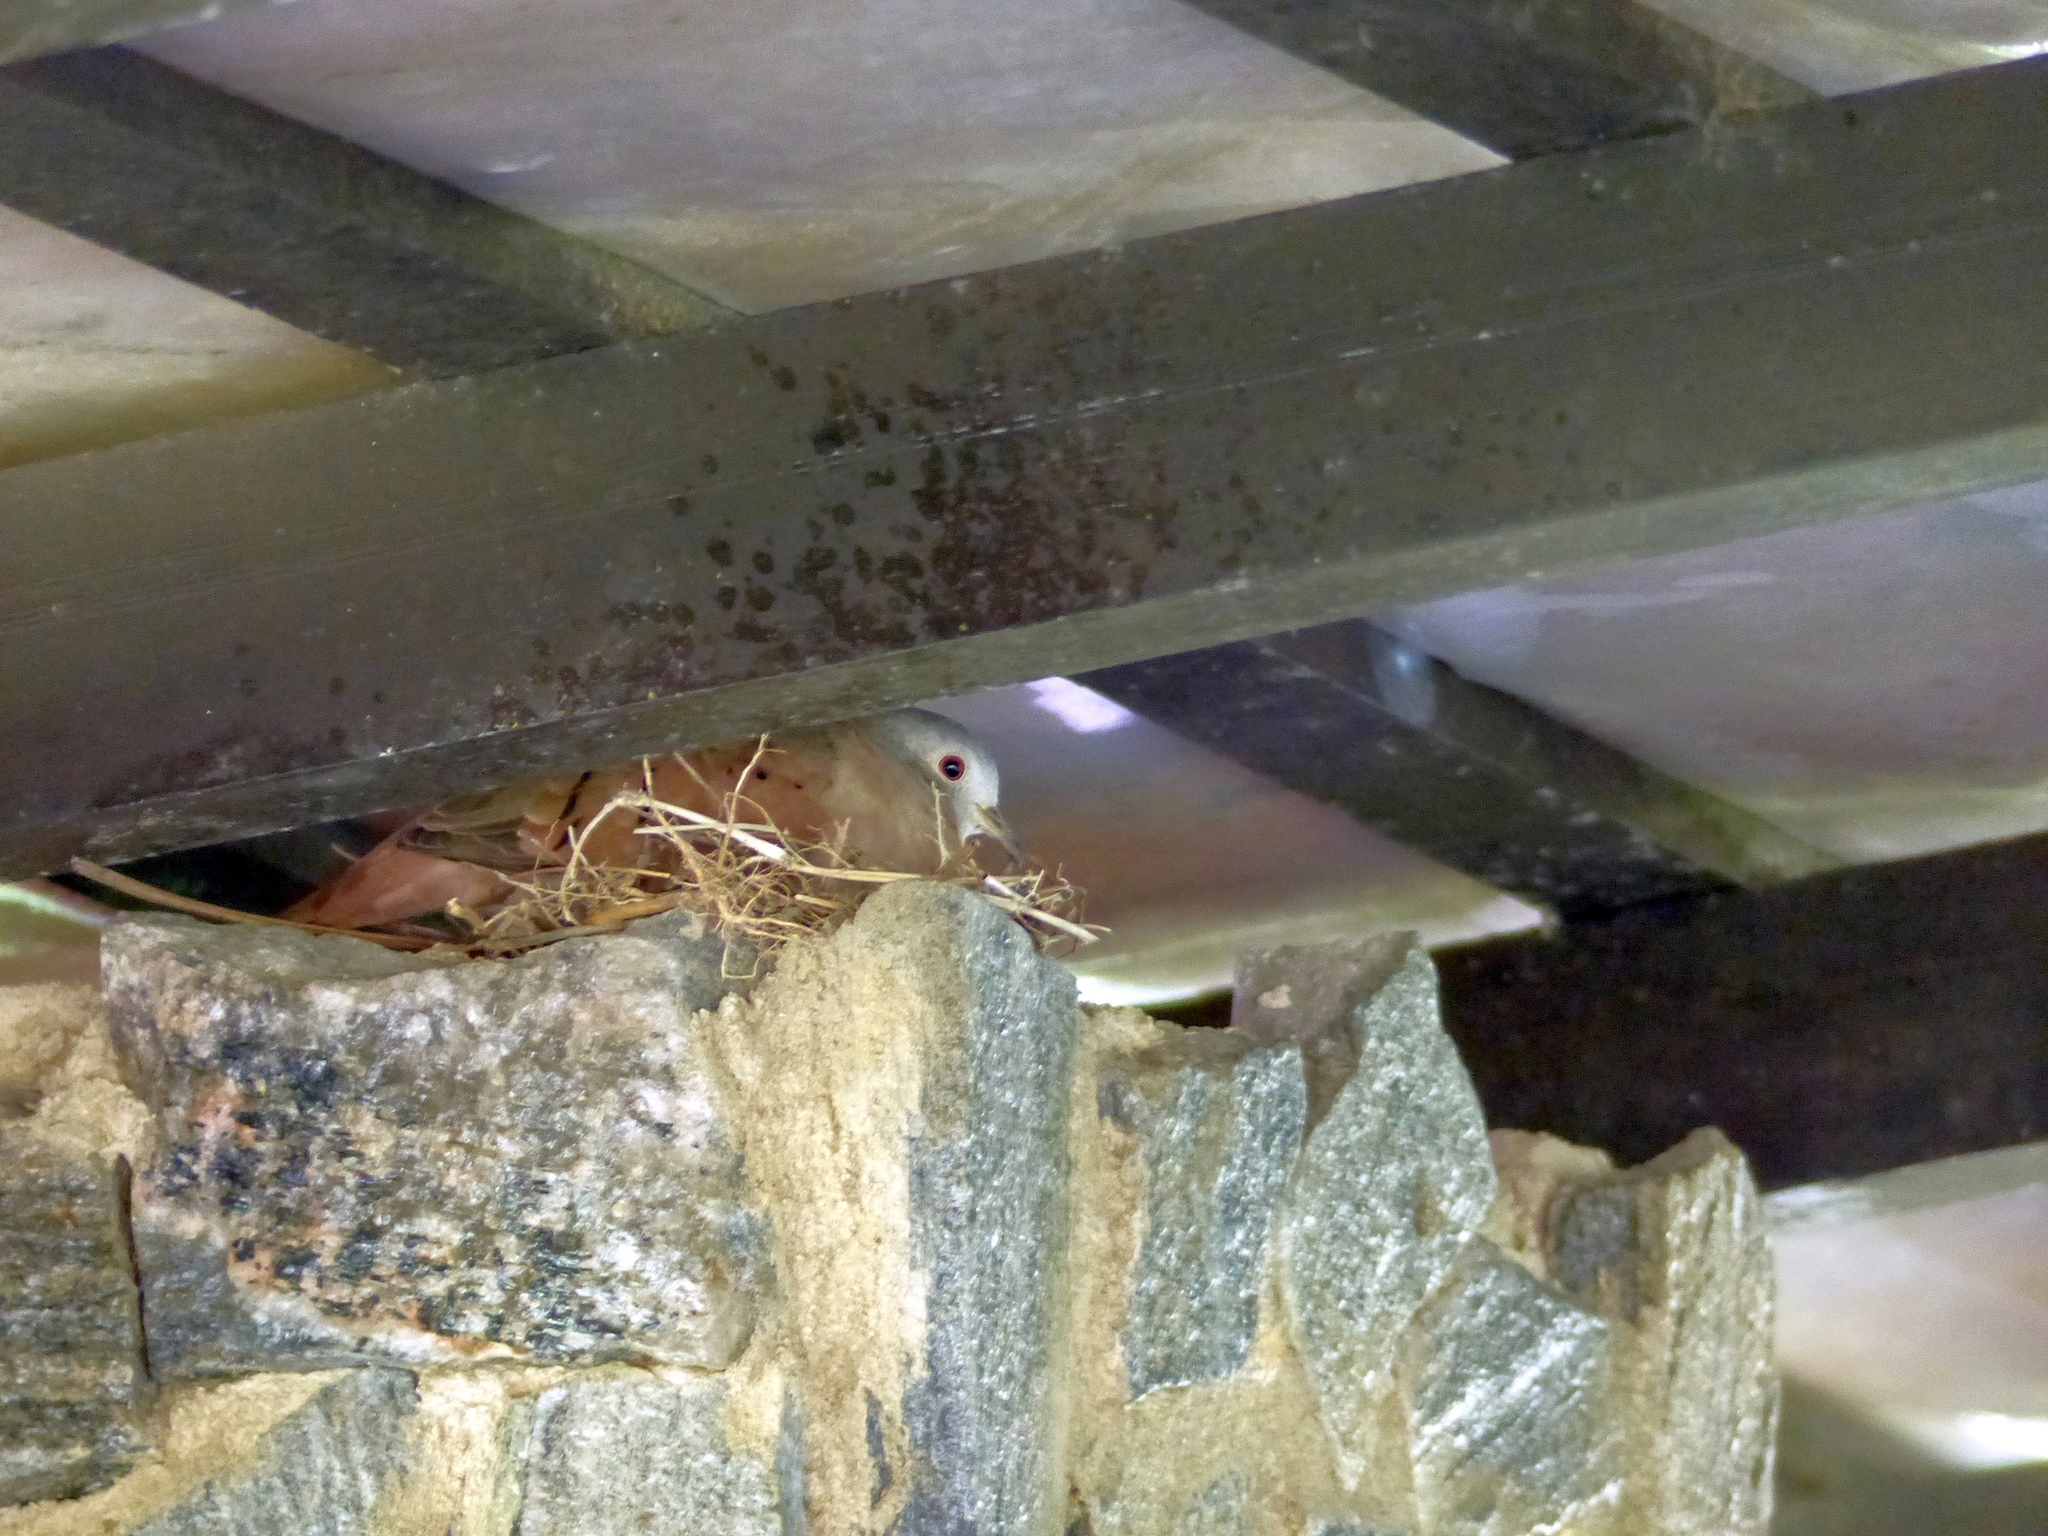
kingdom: Animalia
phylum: Chordata
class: Aves
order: Columbiformes
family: Columbidae
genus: Columbina
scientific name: Columbina talpacoti
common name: Ruddy ground dove
